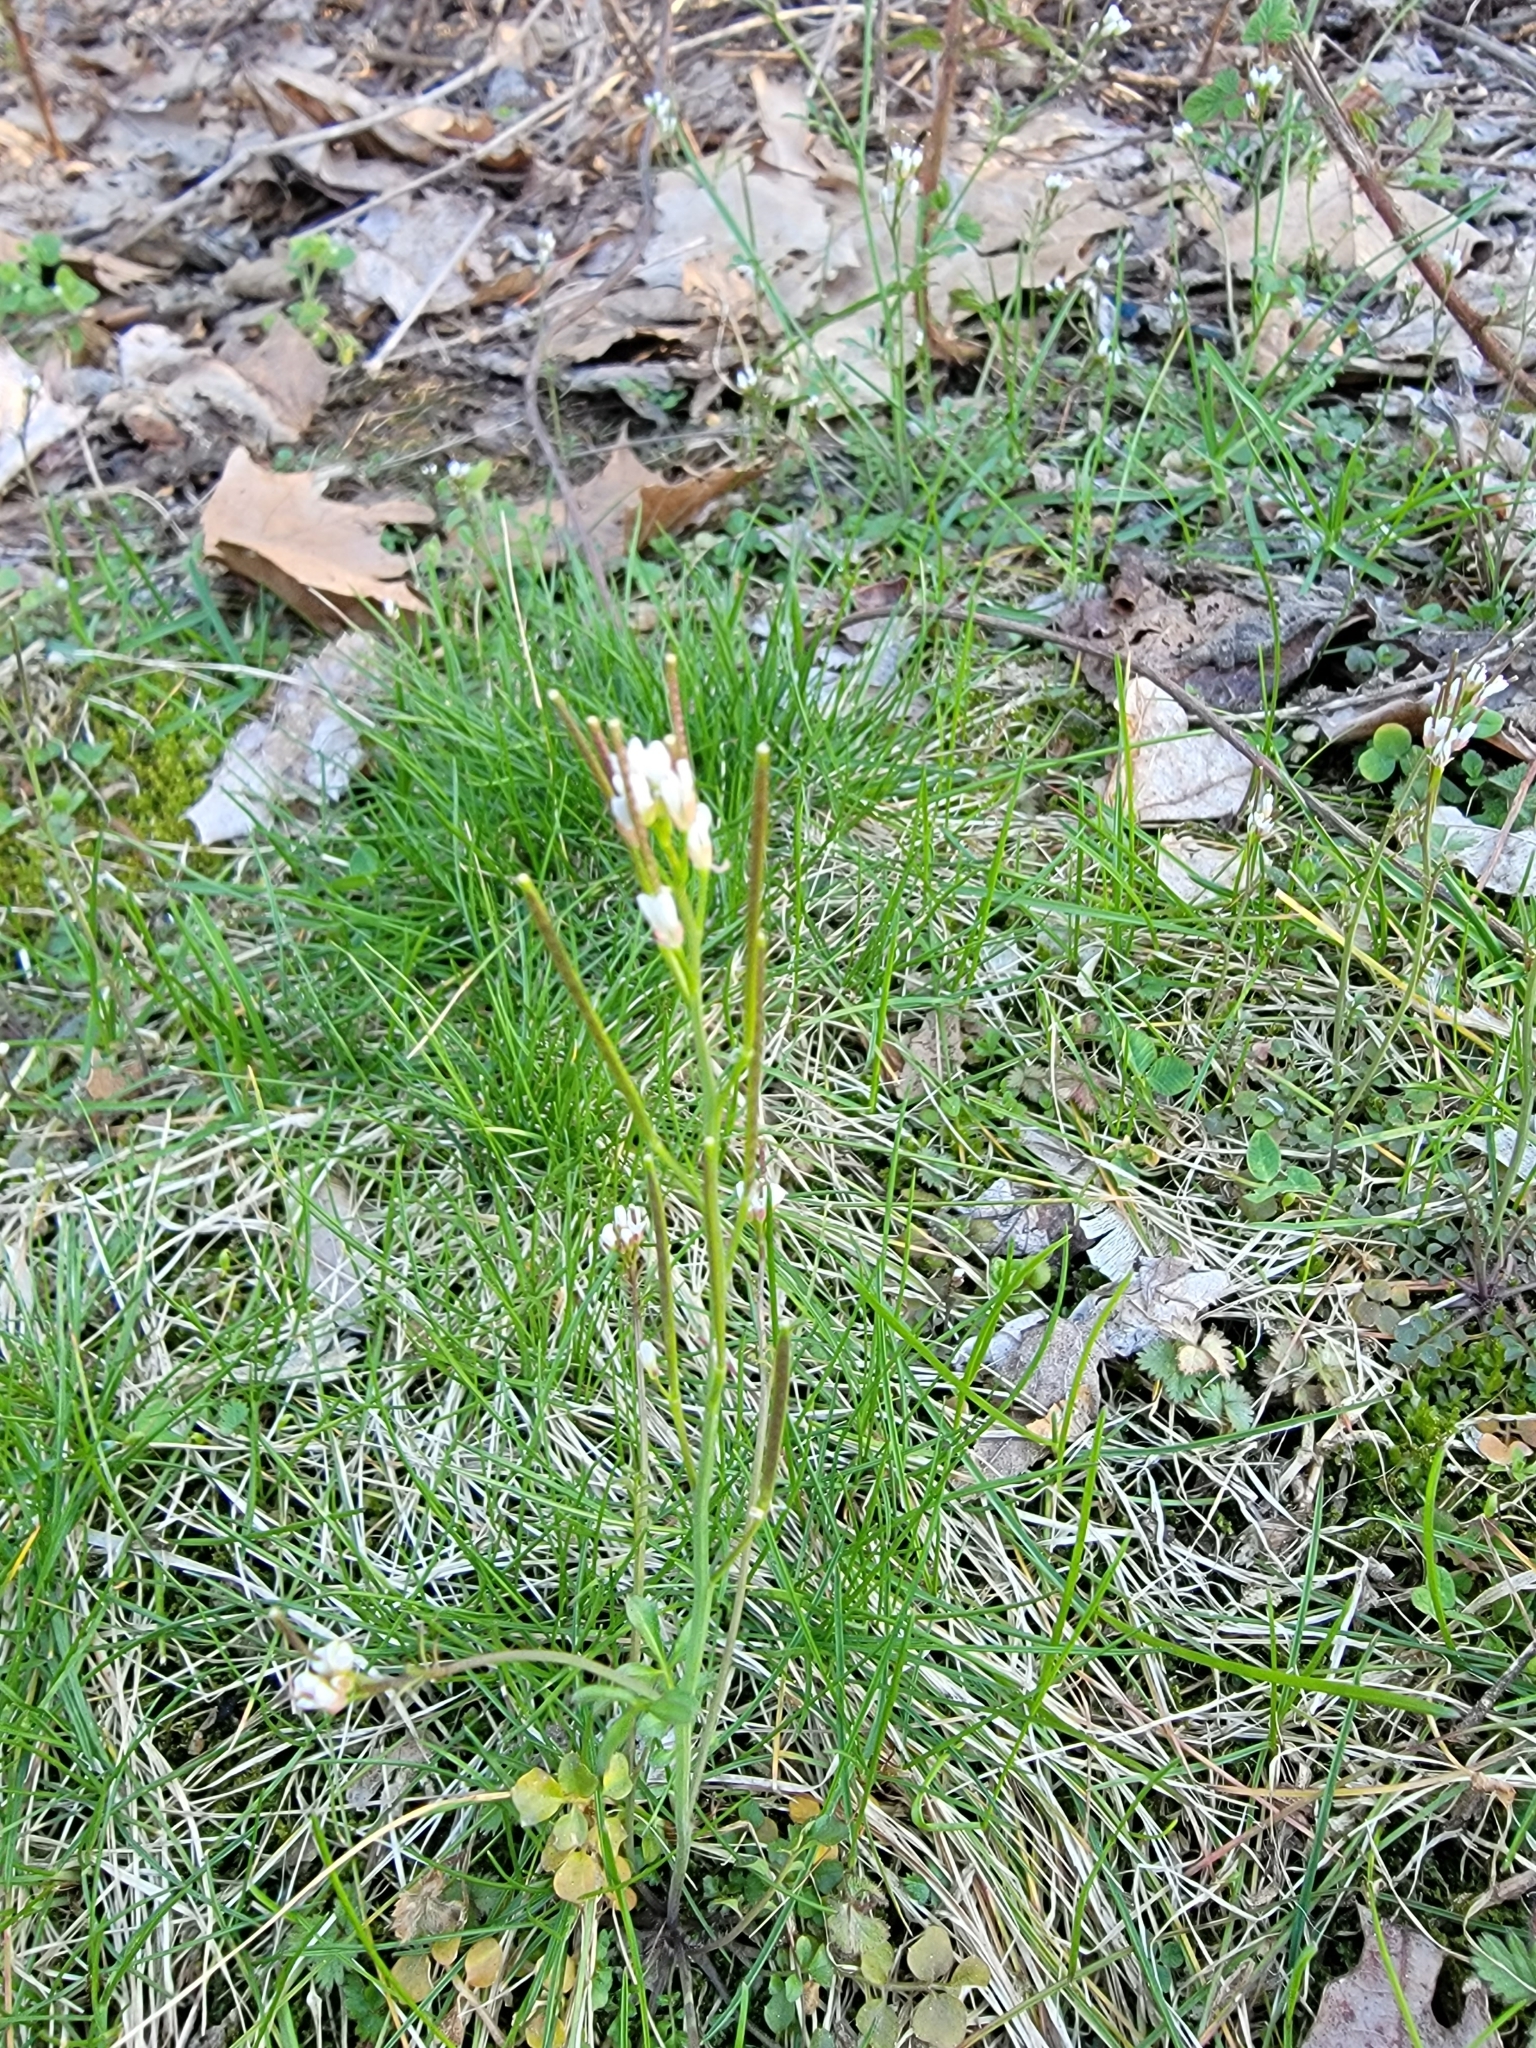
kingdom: Plantae
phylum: Tracheophyta
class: Magnoliopsida
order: Brassicales
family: Brassicaceae
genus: Cardamine
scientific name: Cardamine hirsuta
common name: Hairy bittercress
